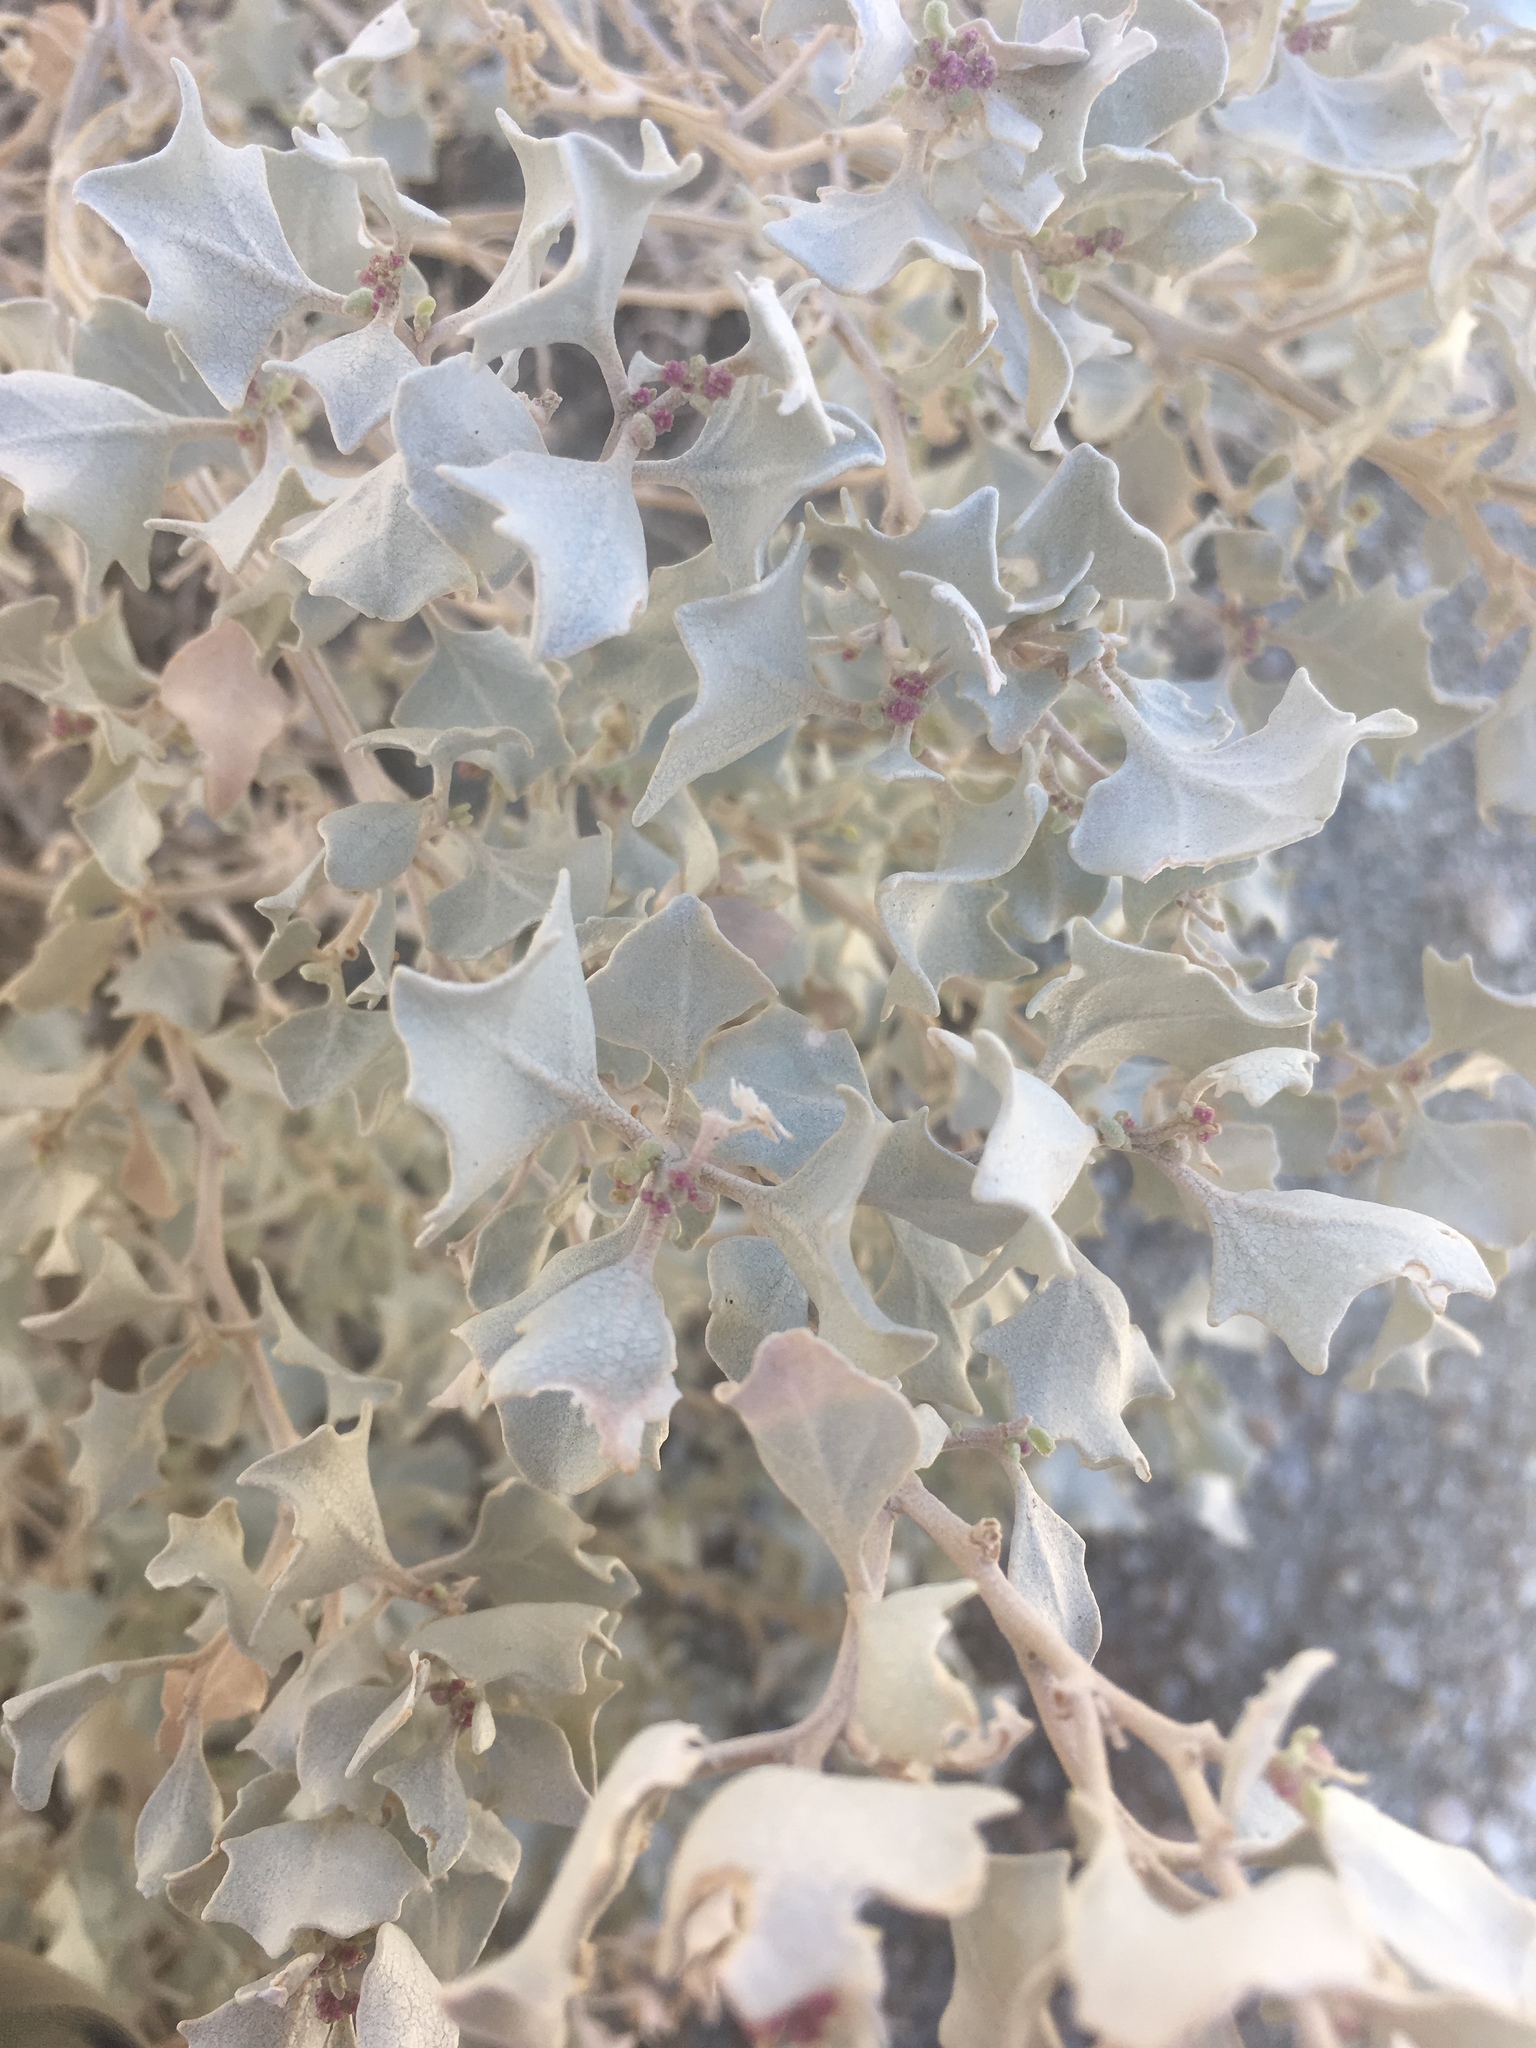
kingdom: Plantae
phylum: Tracheophyta
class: Magnoliopsida
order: Caryophyllales
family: Amaranthaceae
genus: Atriplex
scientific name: Atriplex hymenelytra
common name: Desert-holly
